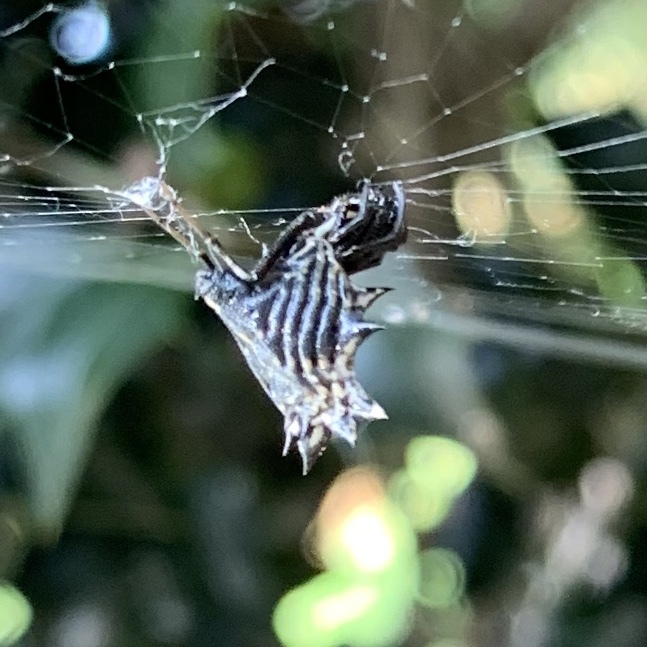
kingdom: Animalia
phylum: Arthropoda
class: Arachnida
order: Araneae
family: Araneidae
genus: Micrathena
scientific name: Micrathena gracilis
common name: Orb weavers
